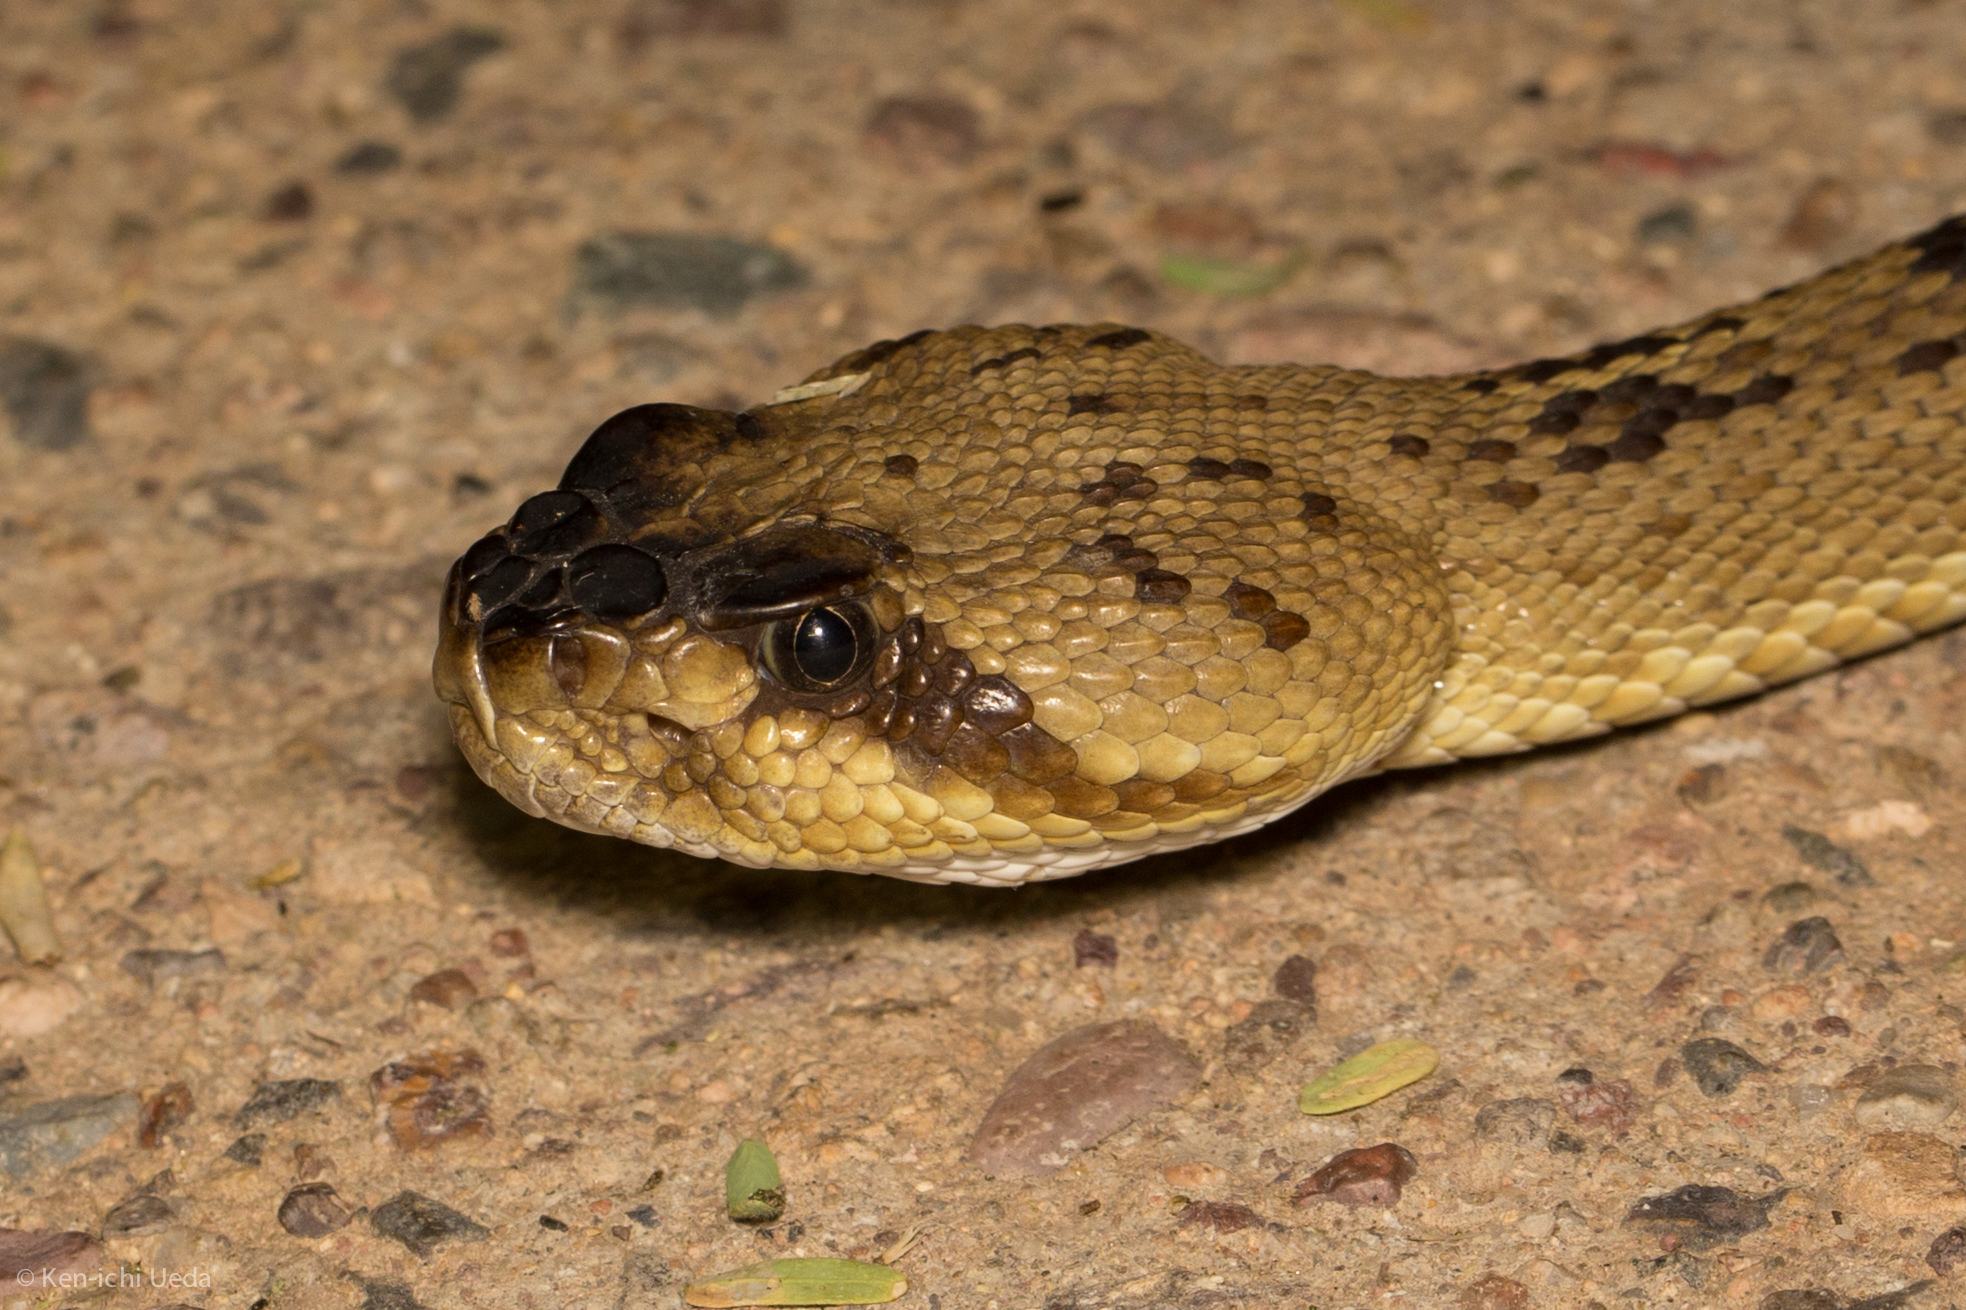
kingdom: Animalia
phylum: Chordata
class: Squamata
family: Viperidae
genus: Crotalus
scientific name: Crotalus molossus
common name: Black tailed rattlesnake
